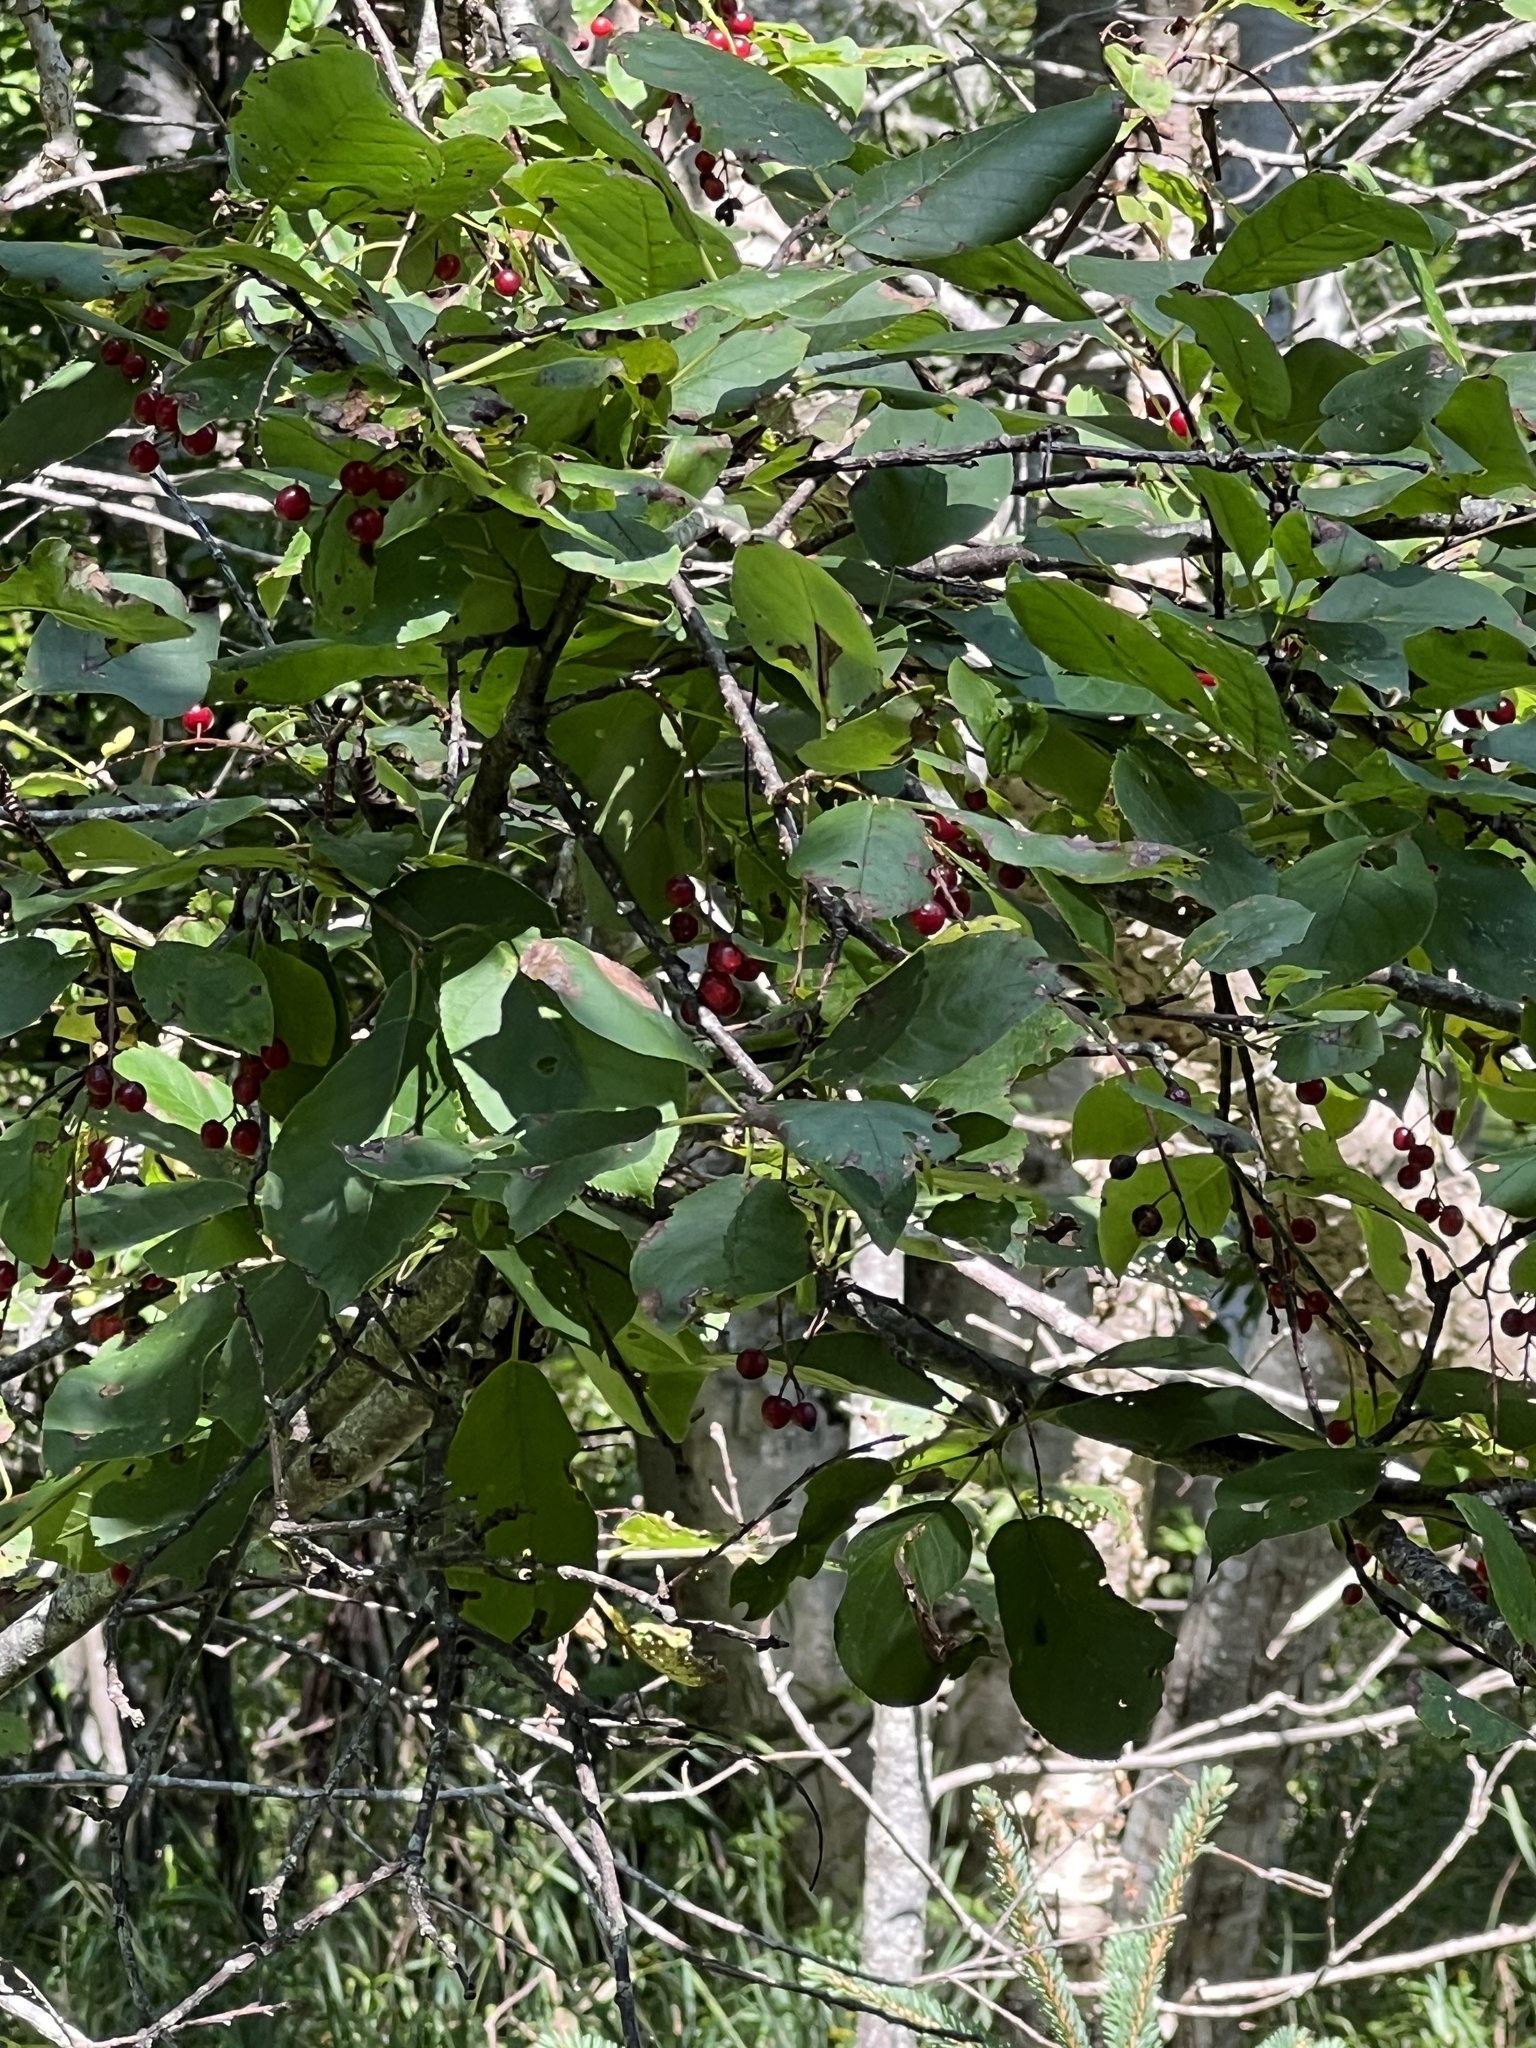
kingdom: Plantae
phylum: Tracheophyta
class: Magnoliopsida
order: Rosales
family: Rosaceae
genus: Prunus
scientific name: Prunus virginiana
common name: Chokecherry
